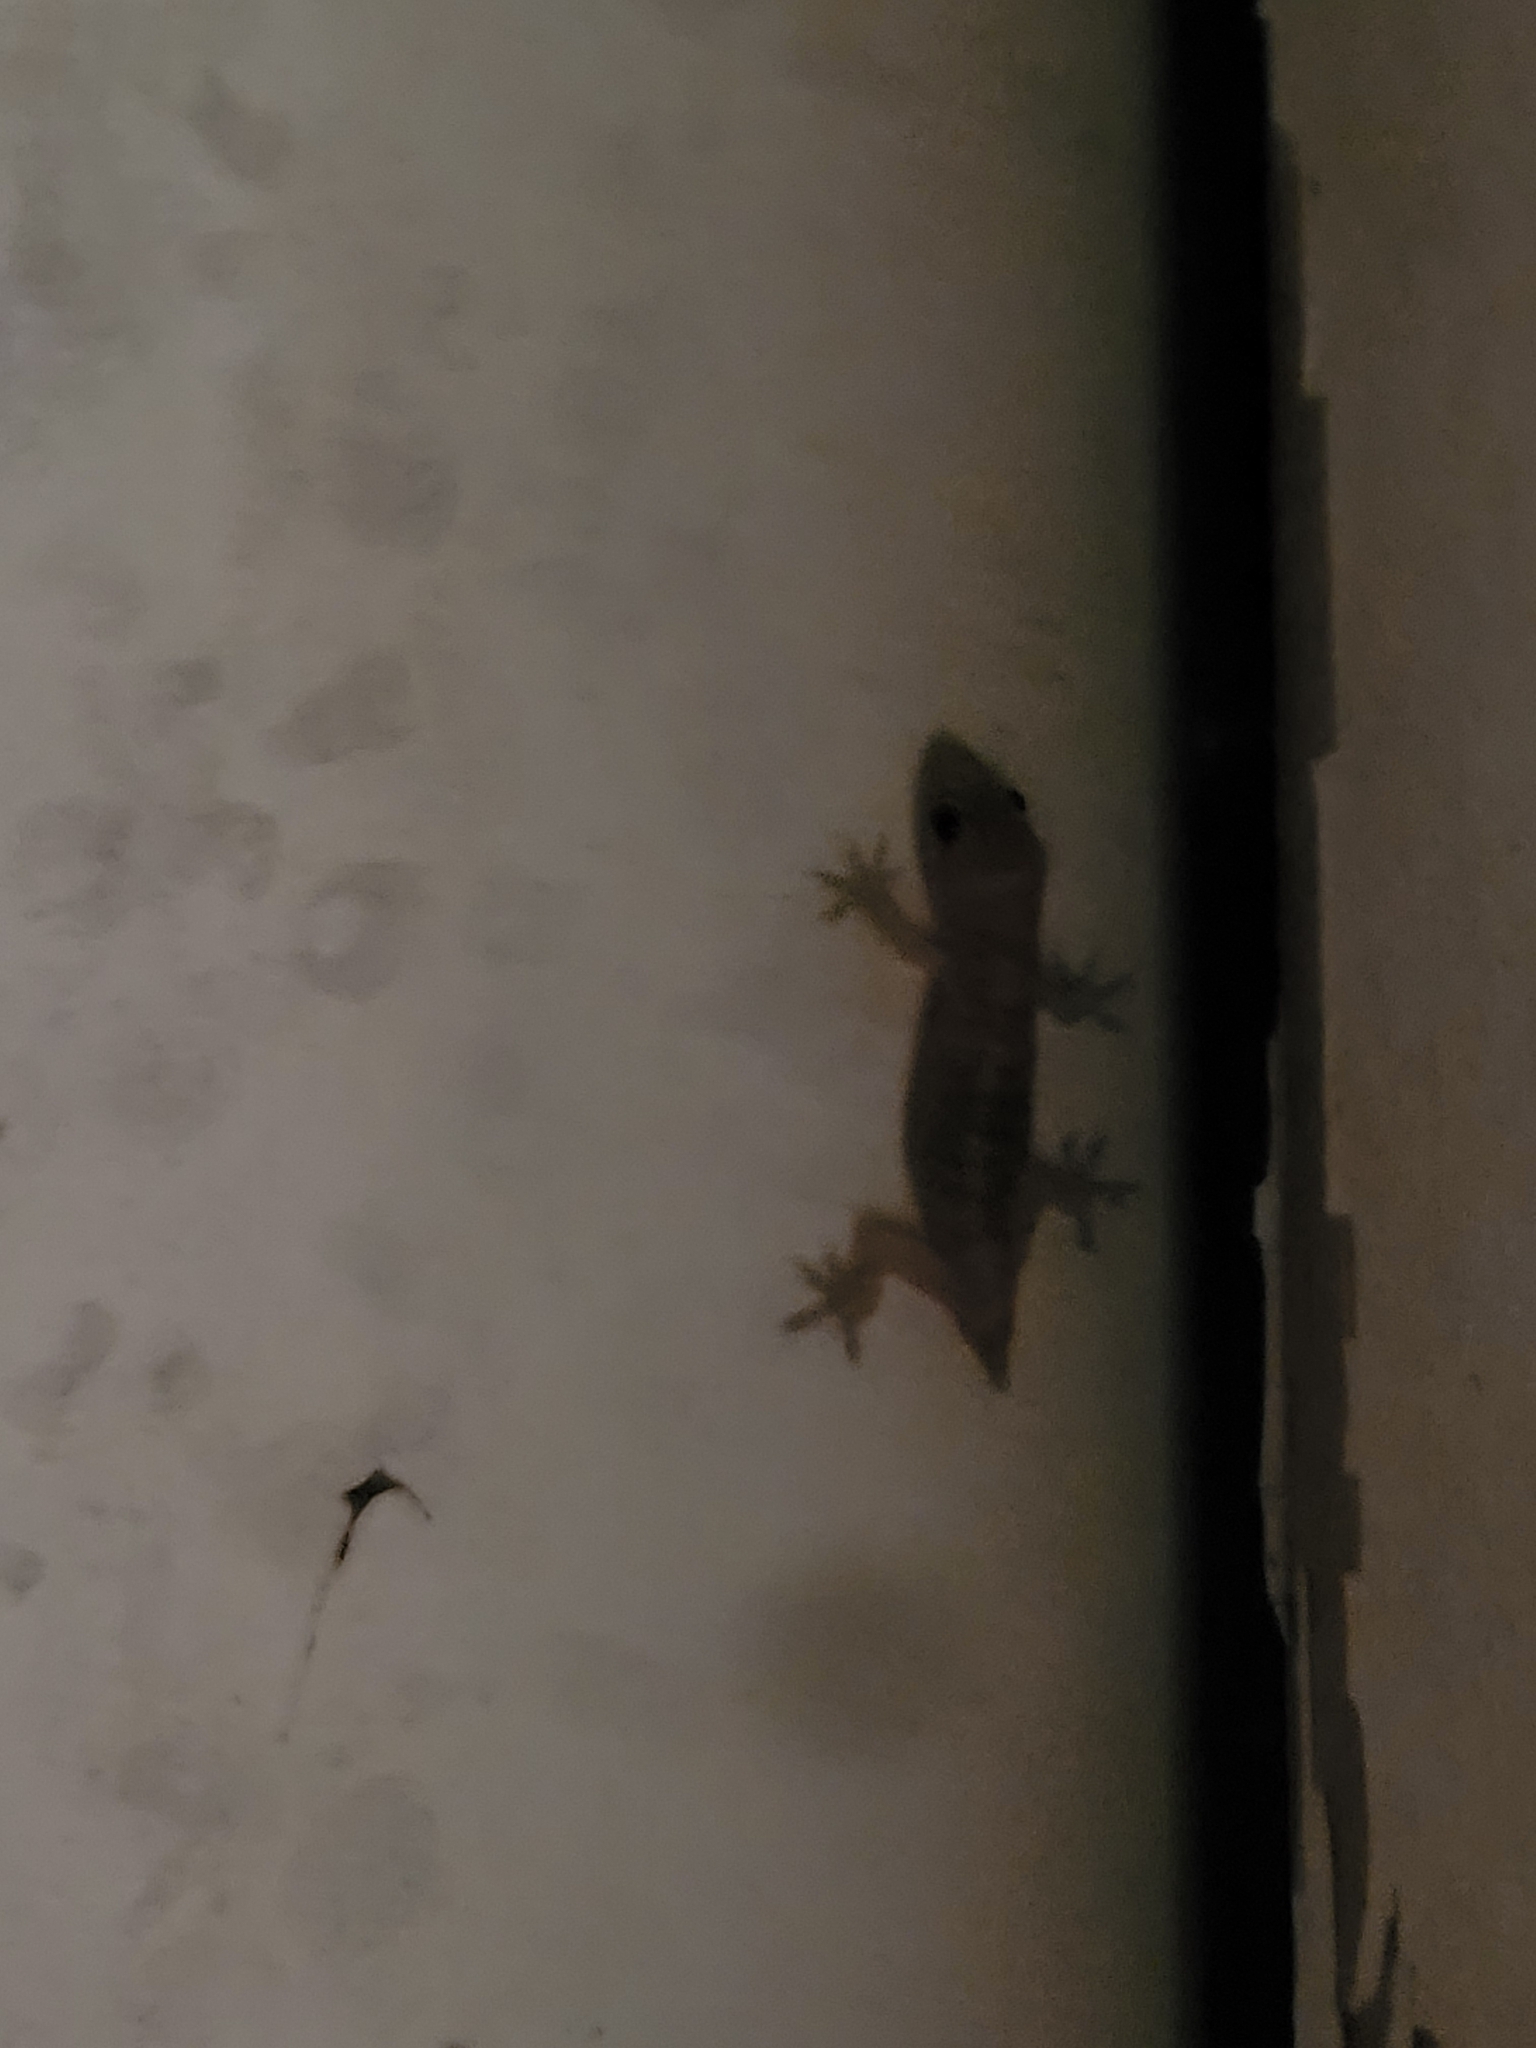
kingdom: Animalia
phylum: Chordata
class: Squamata
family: Gekkonidae
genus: Hemidactylus
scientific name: Hemidactylus turcicus
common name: Turkish gecko
